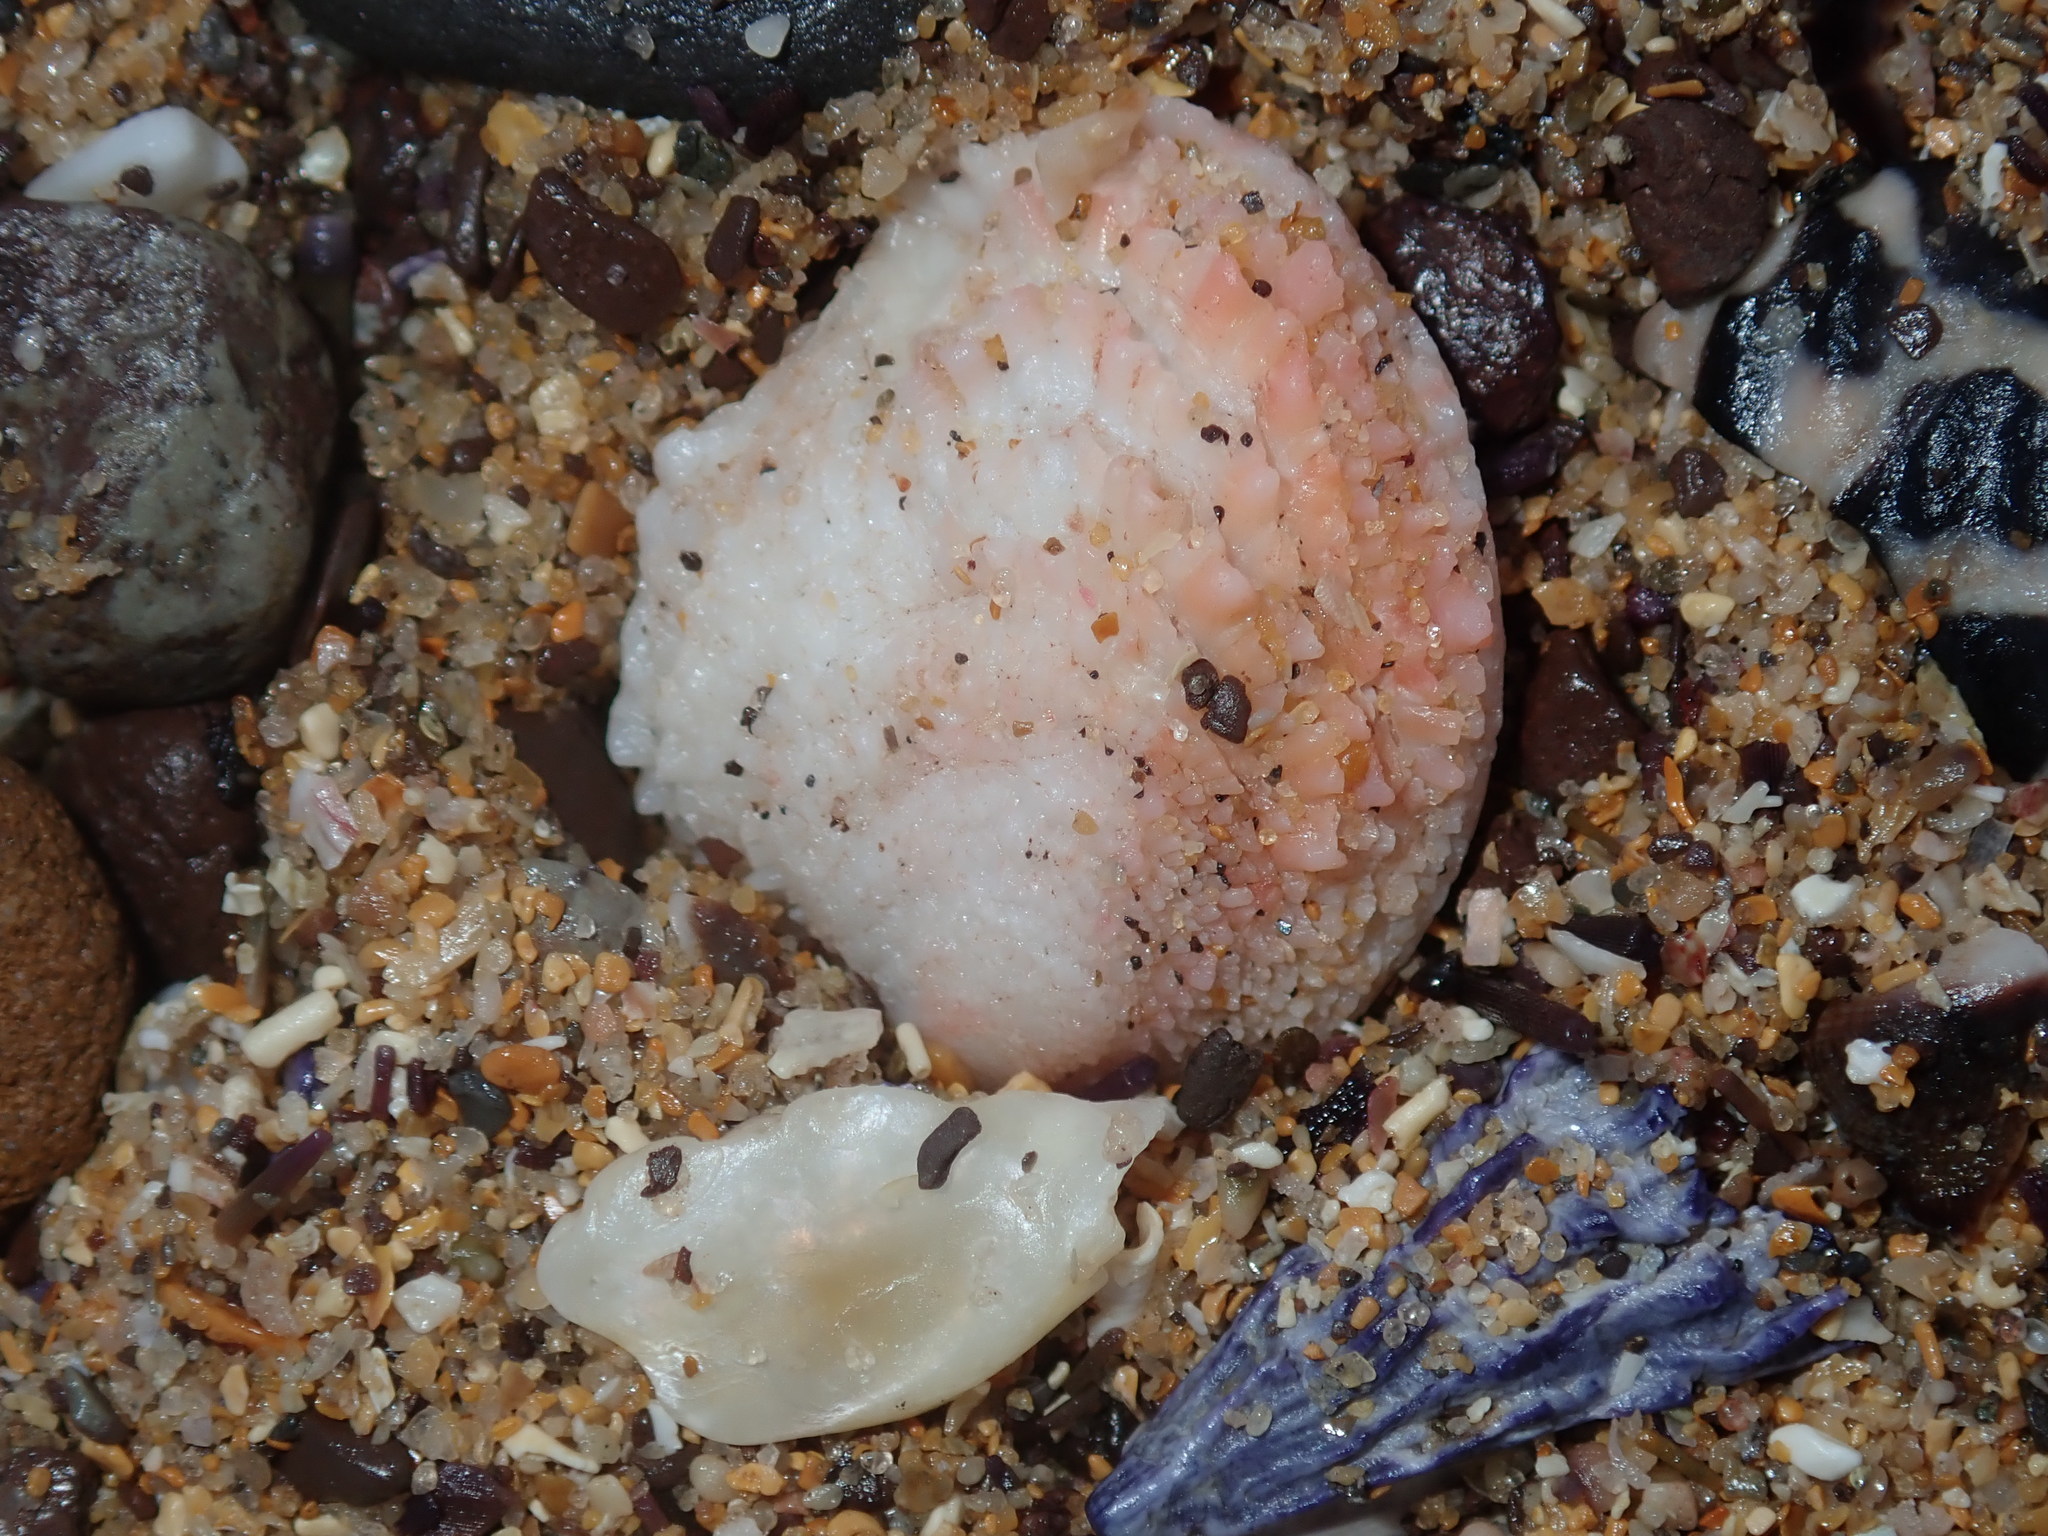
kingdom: Animalia
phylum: Mollusca
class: Bivalvia
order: Venerida
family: Chamidae
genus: Chama
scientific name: Chama asperella
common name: Mollusca
